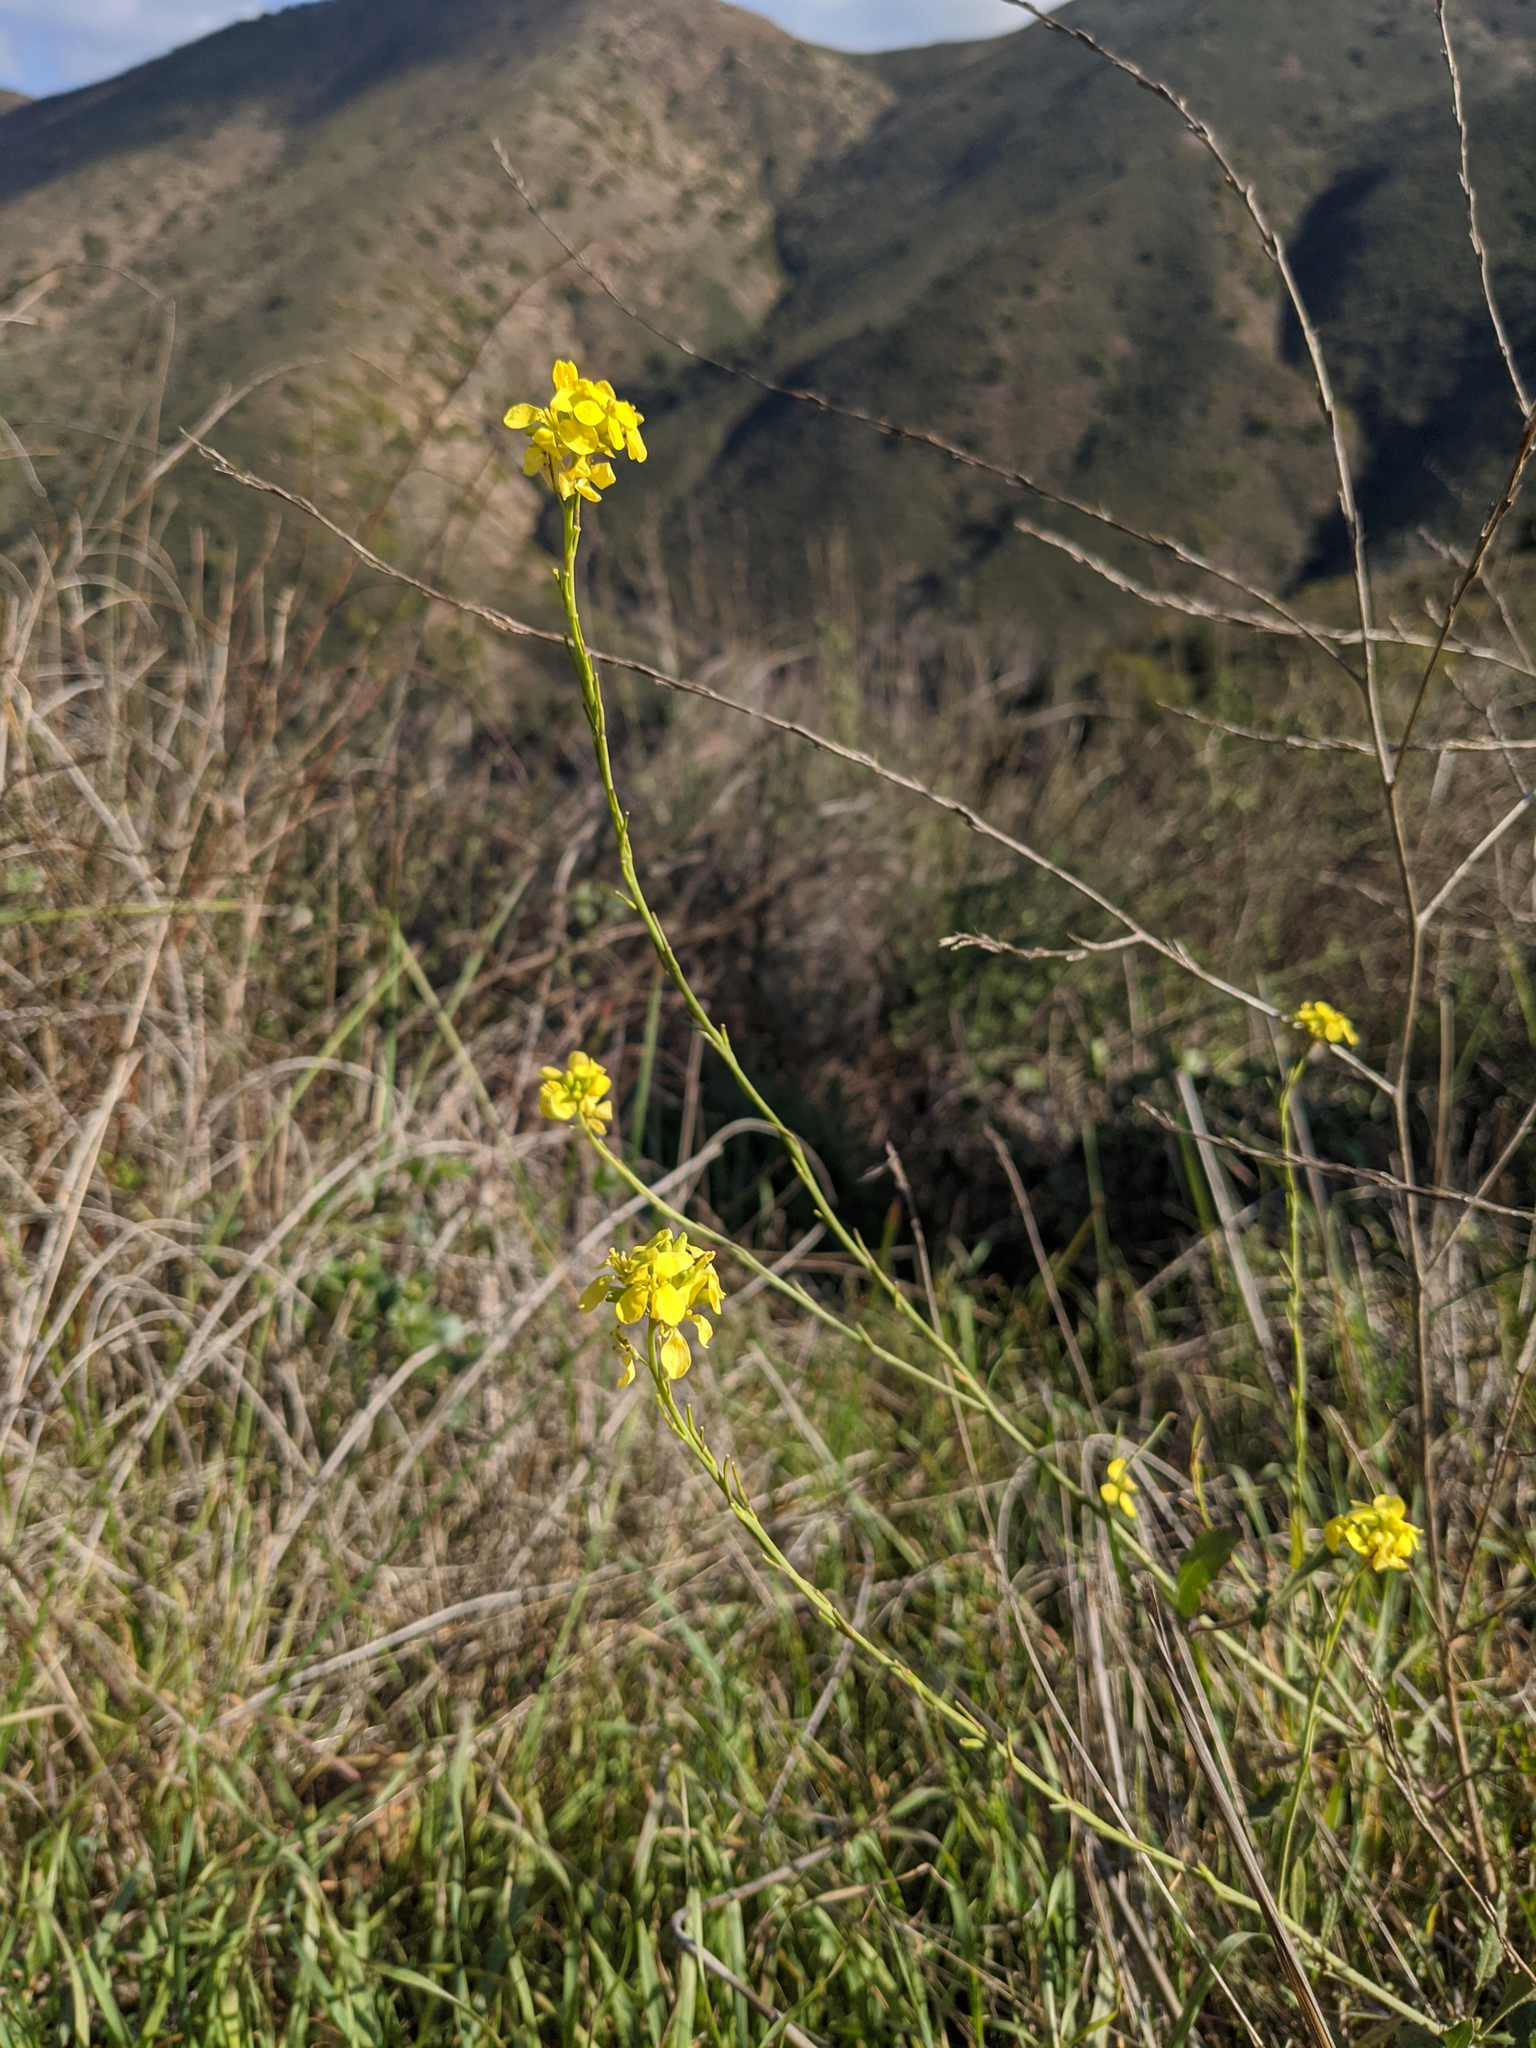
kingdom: Plantae
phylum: Tracheophyta
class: Magnoliopsida
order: Brassicales
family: Brassicaceae
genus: Hirschfeldia
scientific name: Hirschfeldia incana
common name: Hoary mustard
